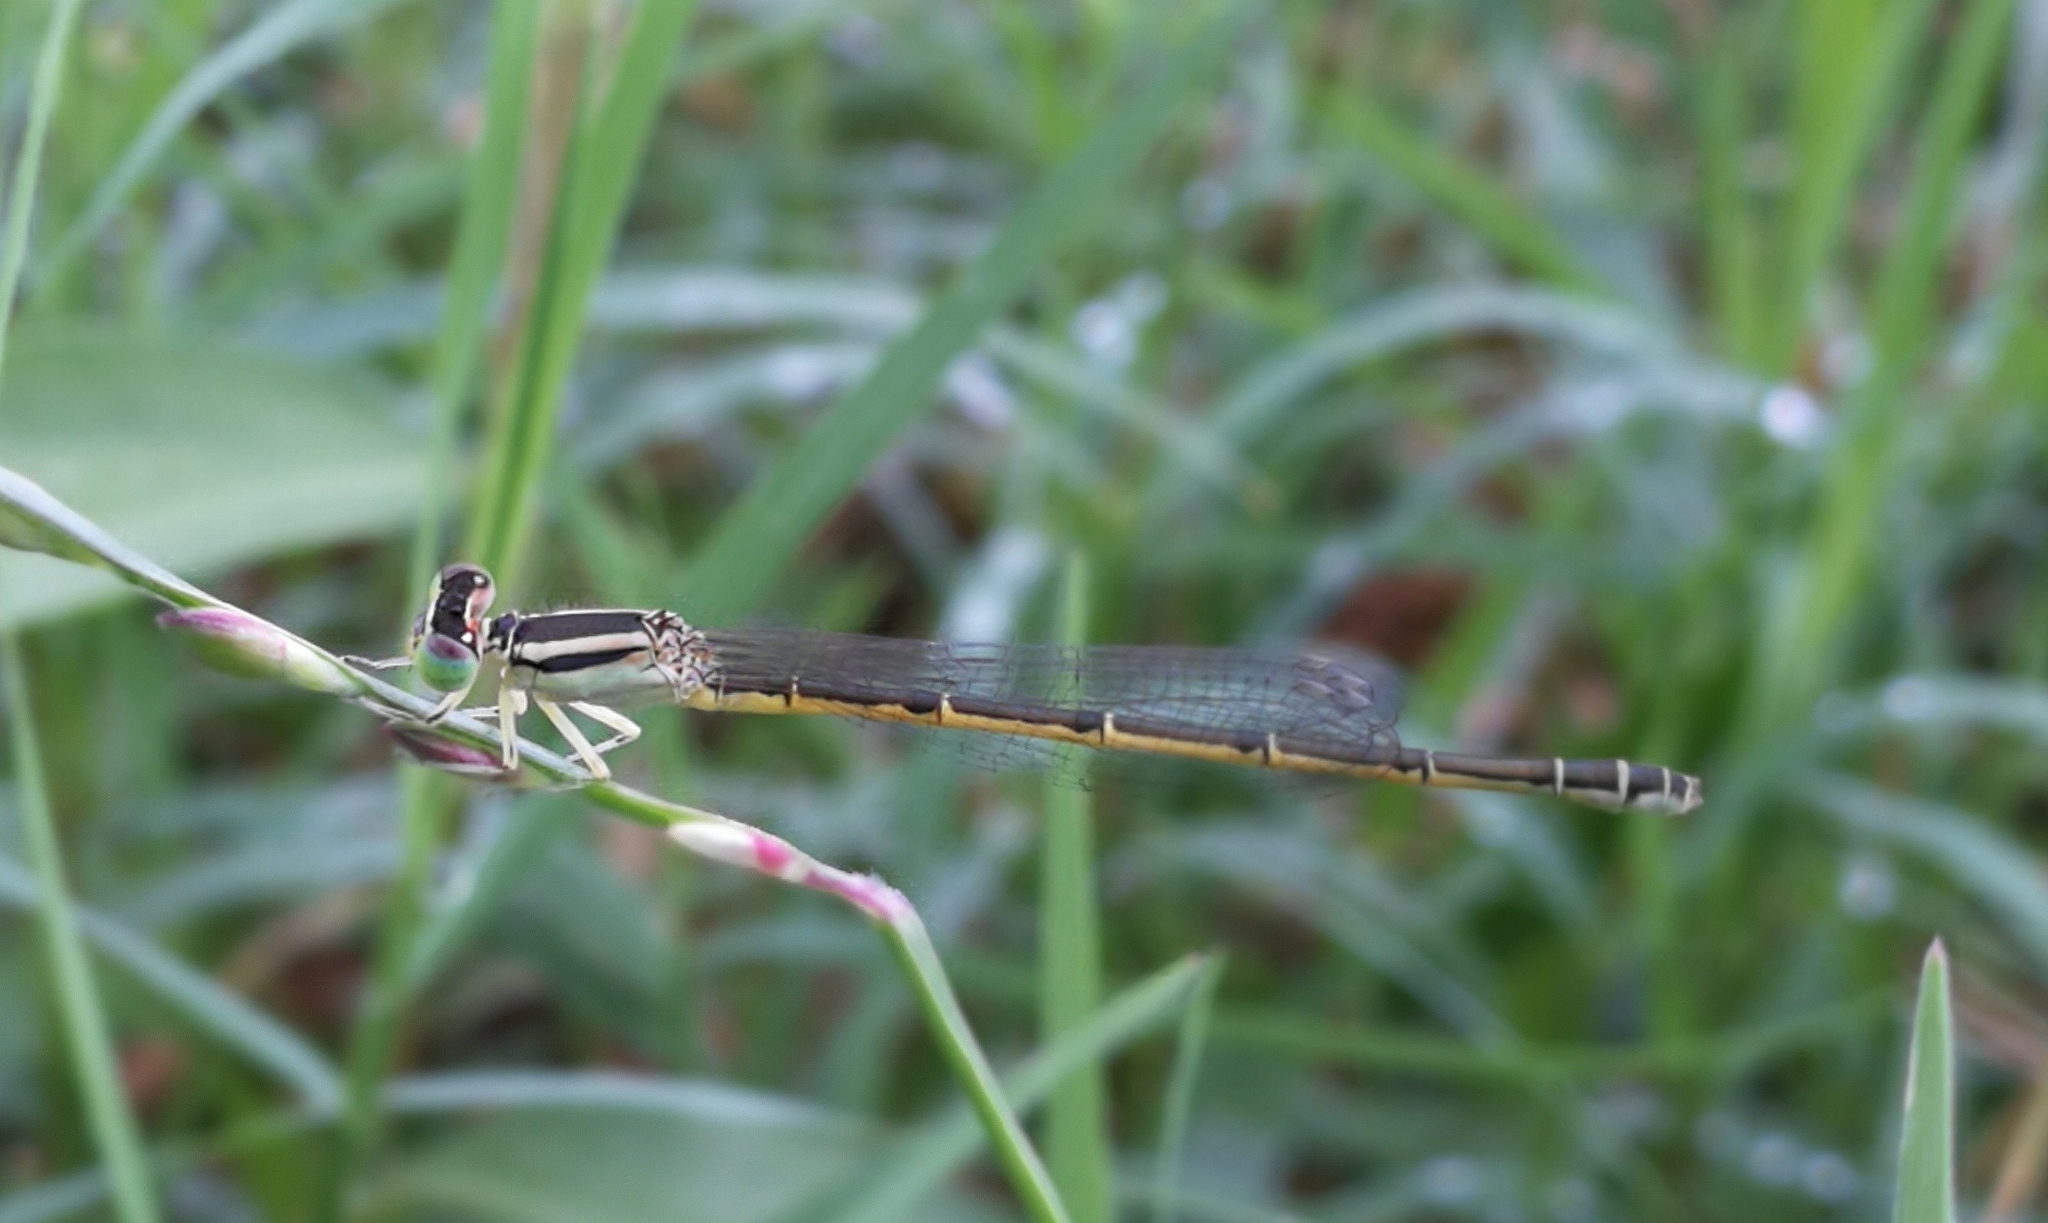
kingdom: Animalia
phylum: Arthropoda
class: Insecta
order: Odonata
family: Coenagrionidae
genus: Ischnura
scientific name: Ischnura rubilio
